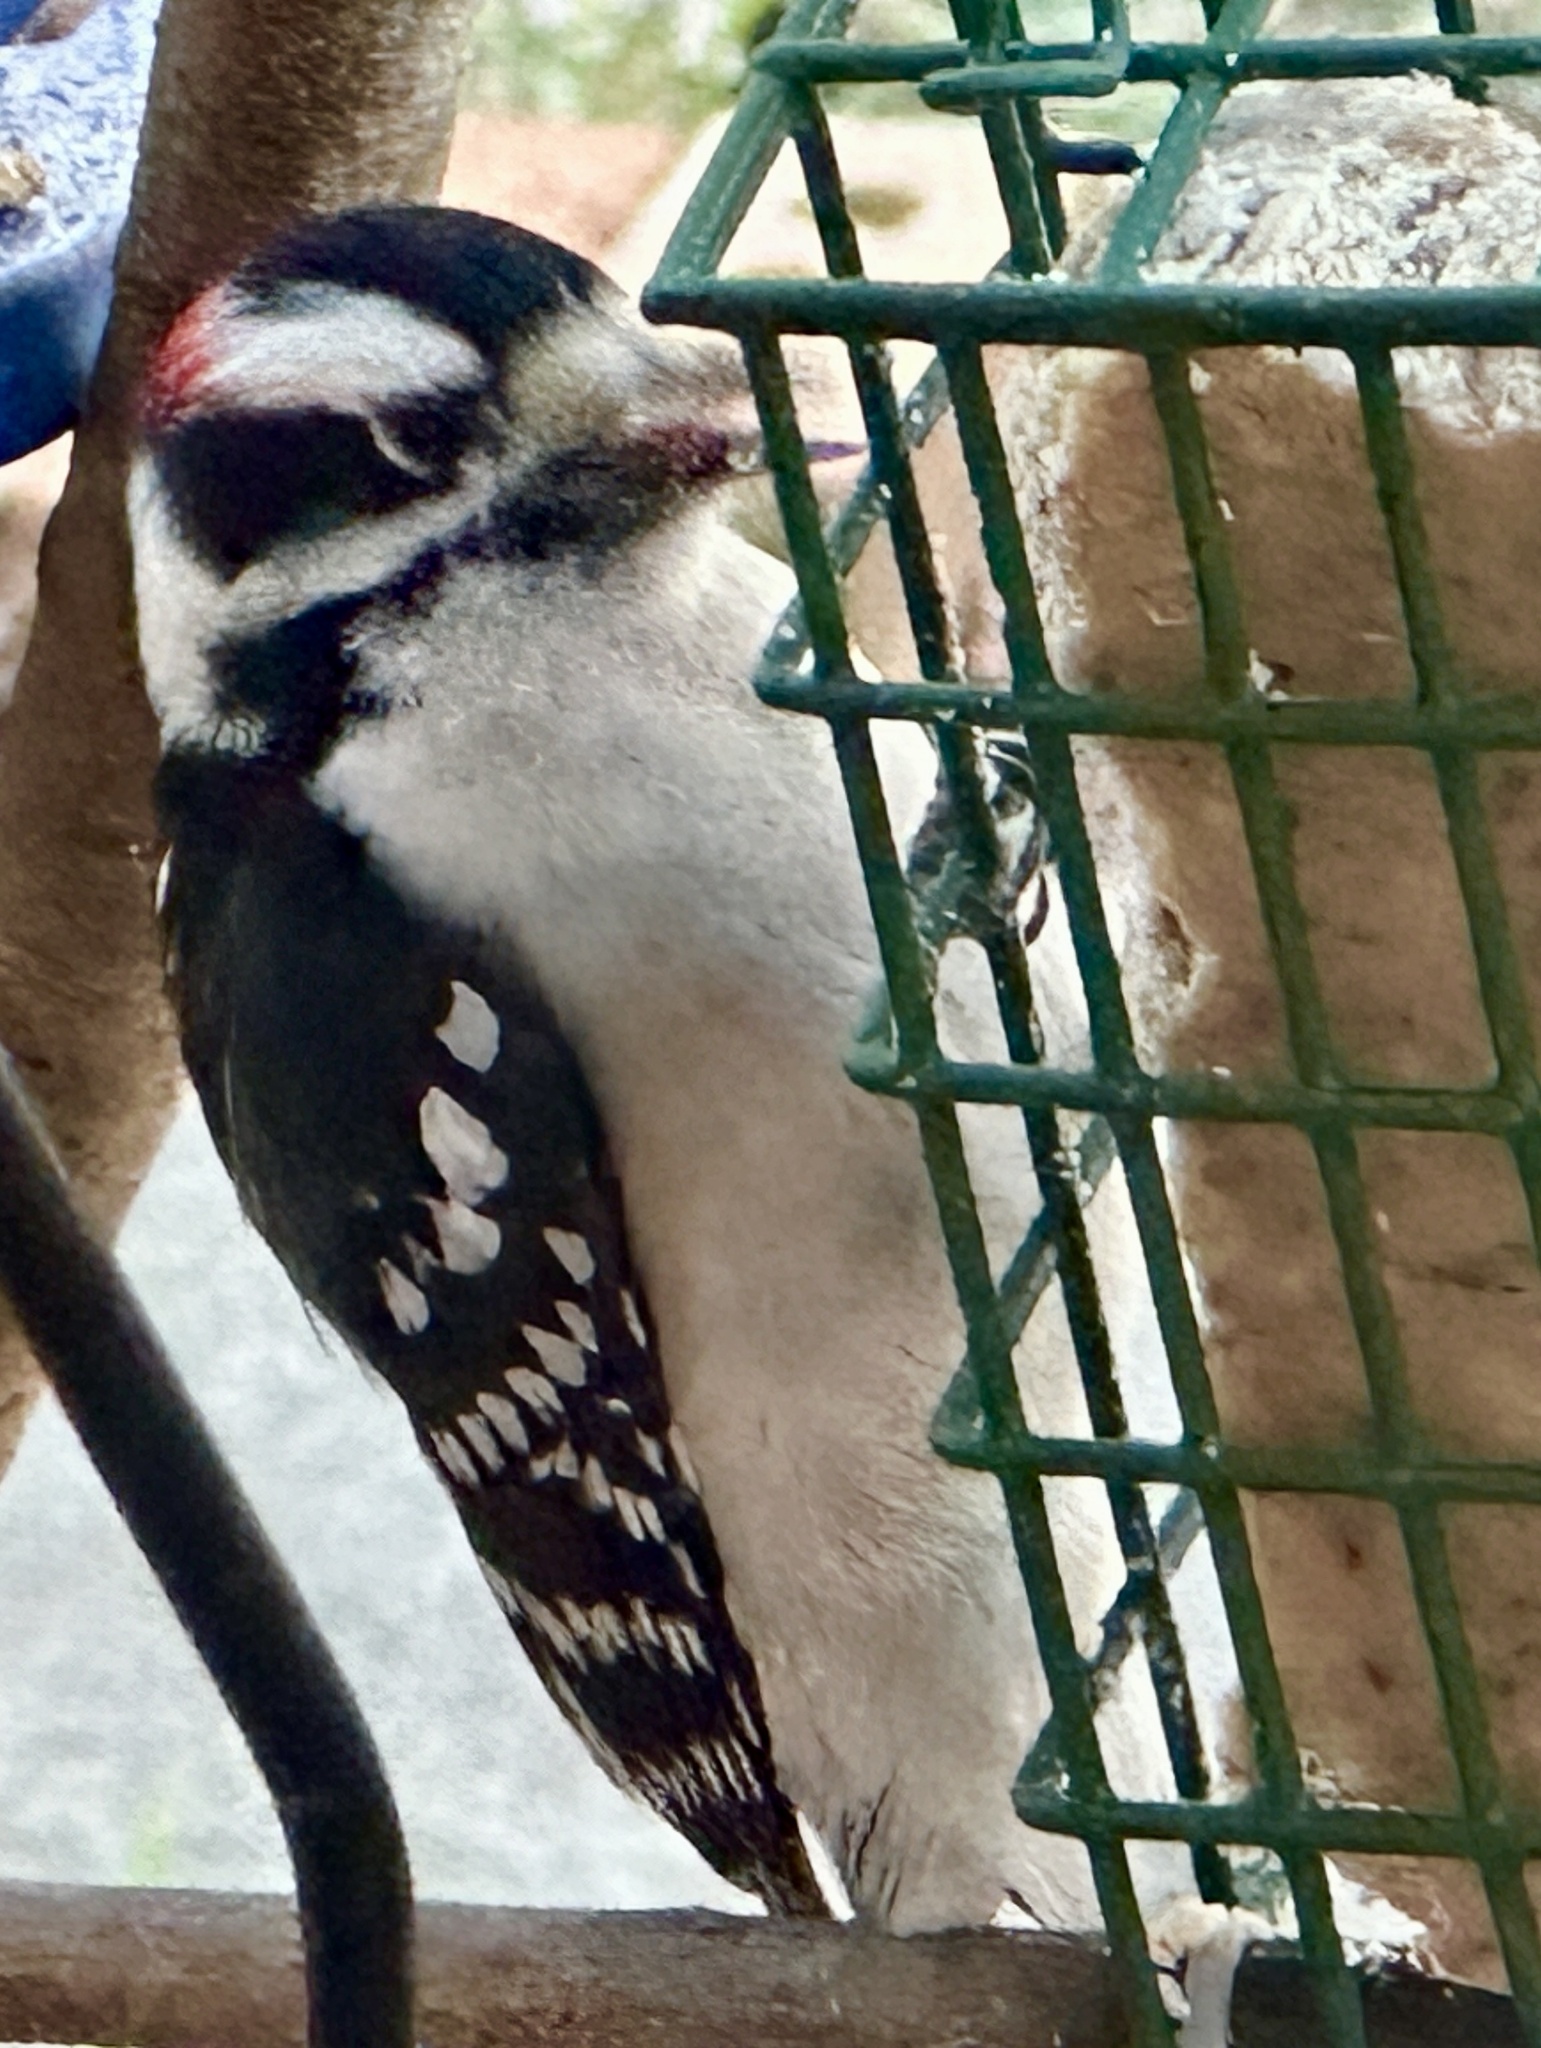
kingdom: Animalia
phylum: Chordata
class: Aves
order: Piciformes
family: Picidae
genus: Dryobates
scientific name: Dryobates pubescens
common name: Downy woodpecker
